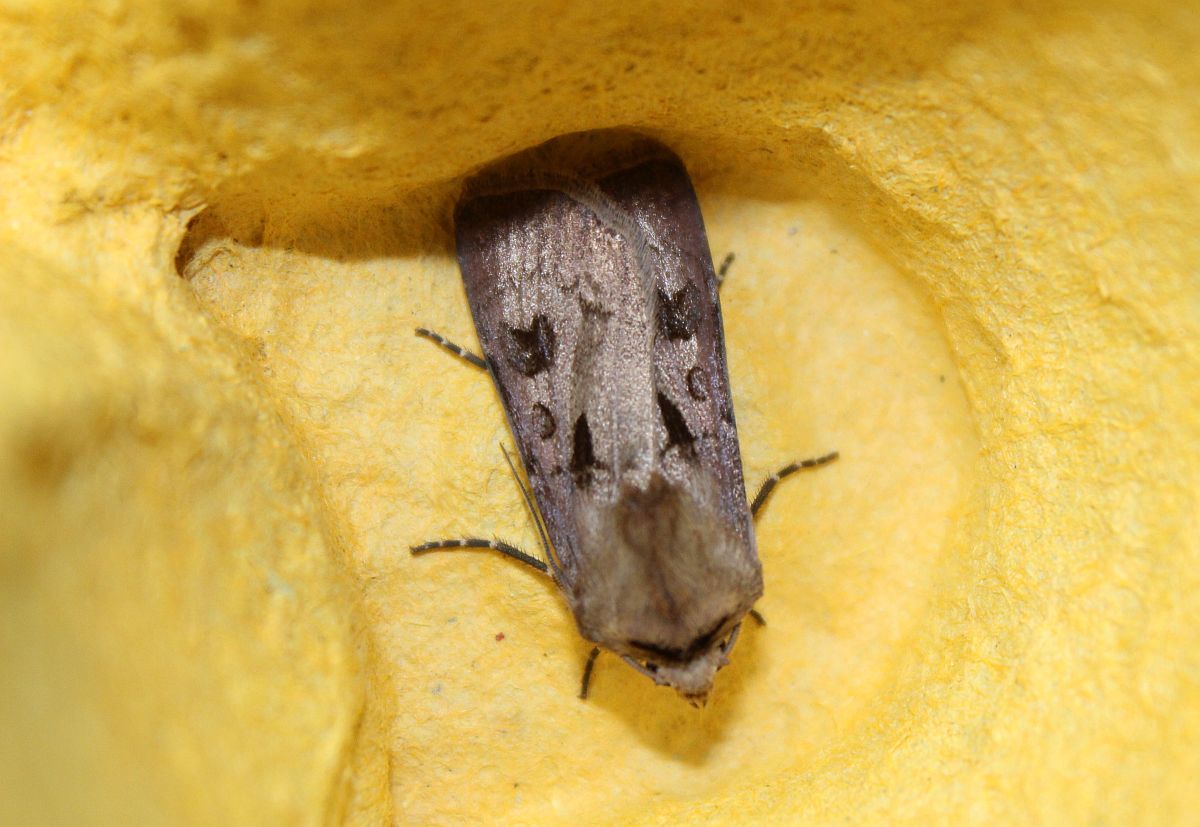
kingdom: Animalia
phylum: Arthropoda
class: Insecta
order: Lepidoptera
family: Noctuidae
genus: Agrotis
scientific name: Agrotis exclamationis
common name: Heart and dart
